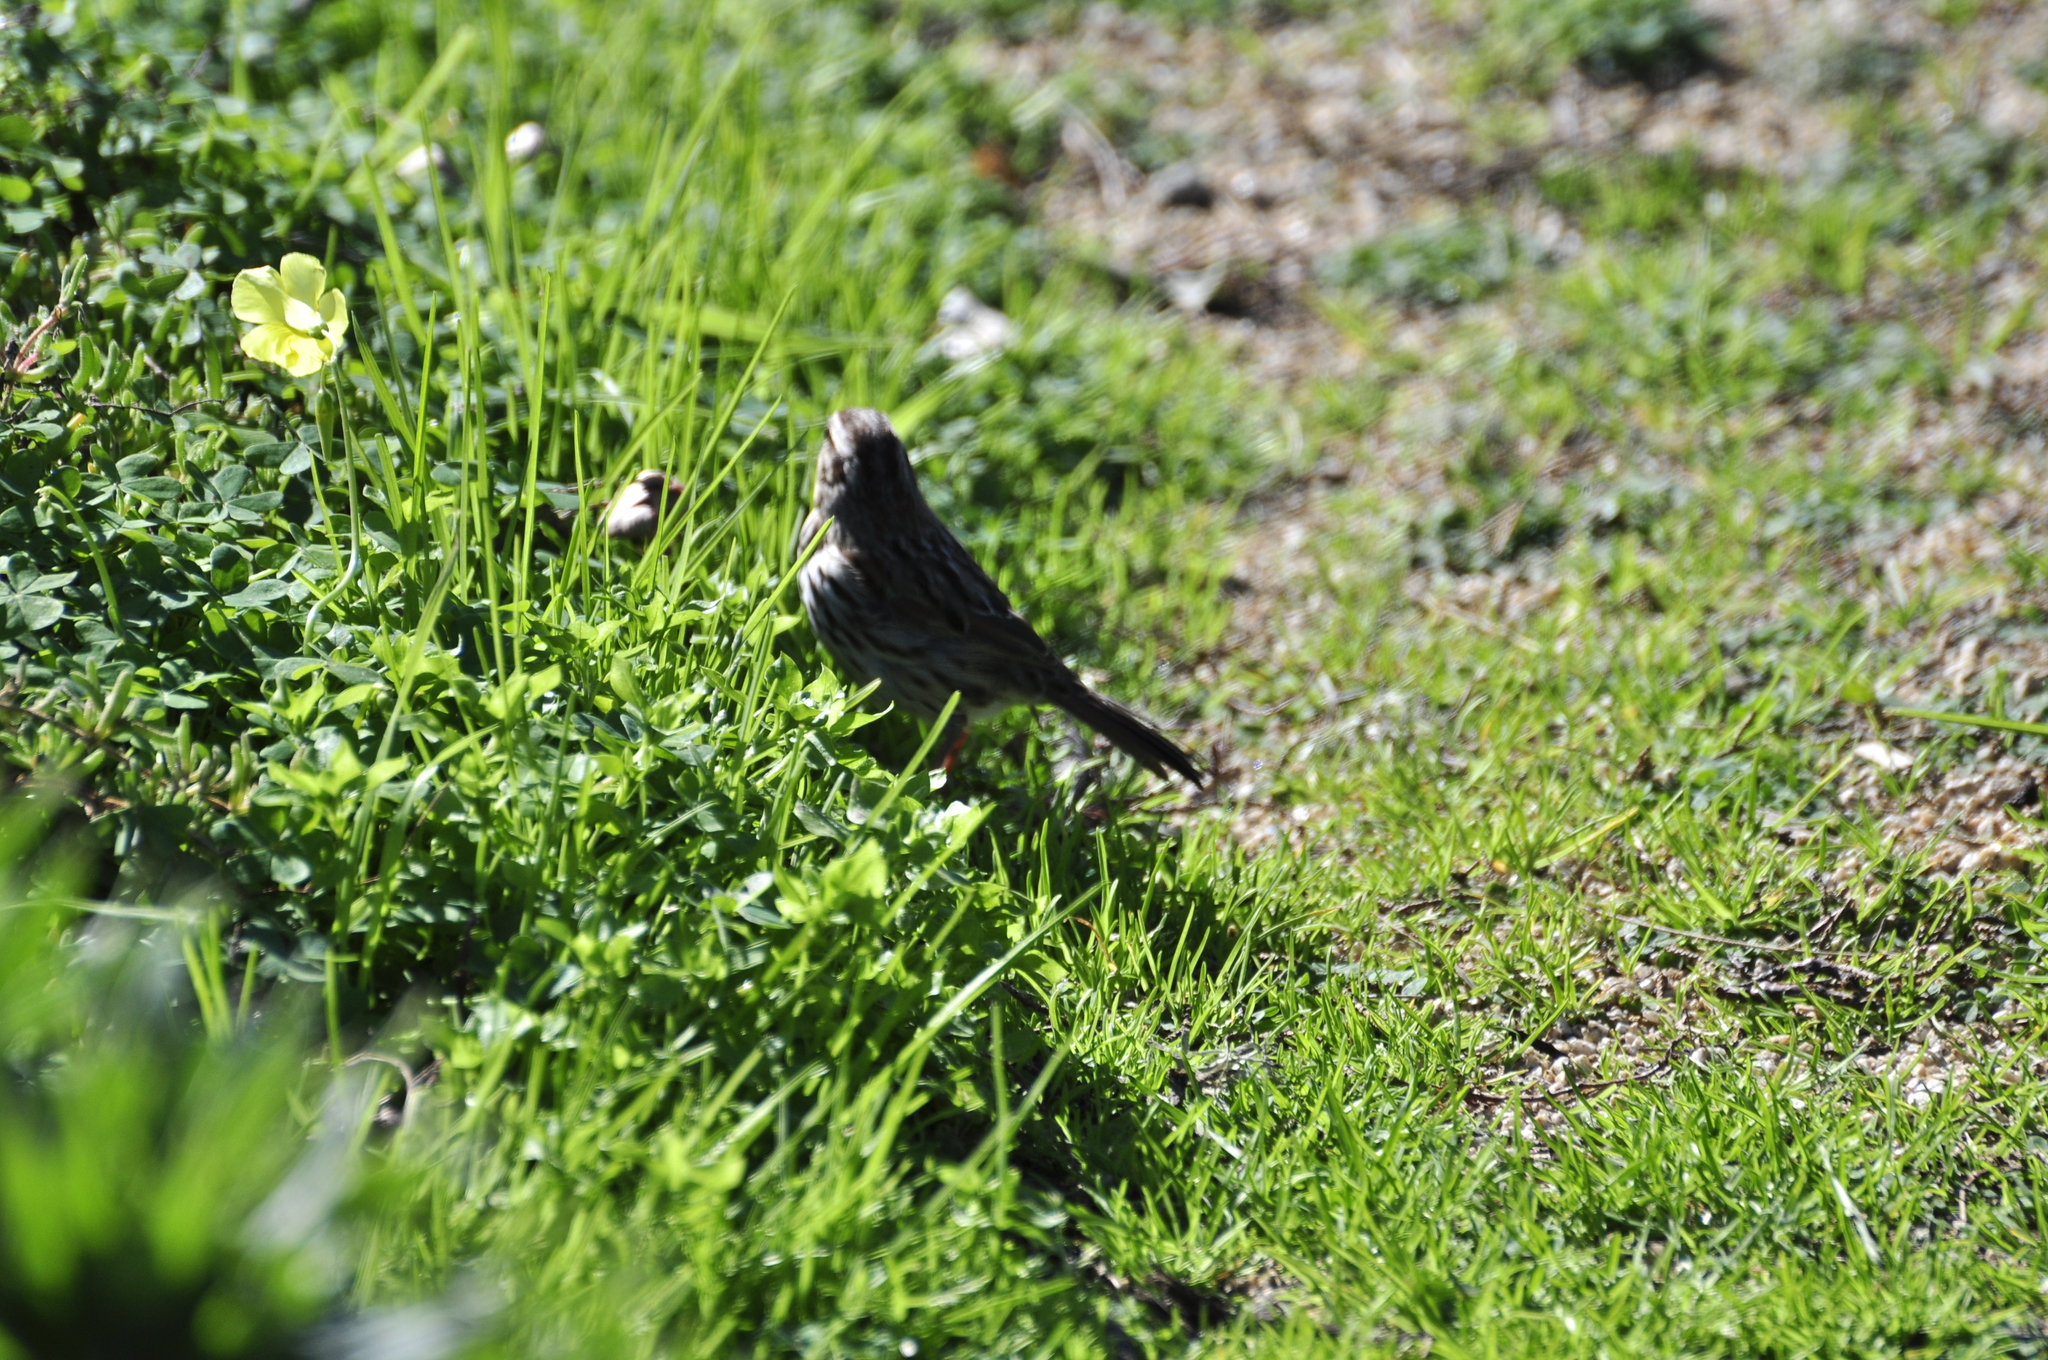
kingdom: Animalia
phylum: Chordata
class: Aves
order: Passeriformes
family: Passerellidae
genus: Melospiza
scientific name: Melospiza melodia
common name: Song sparrow
